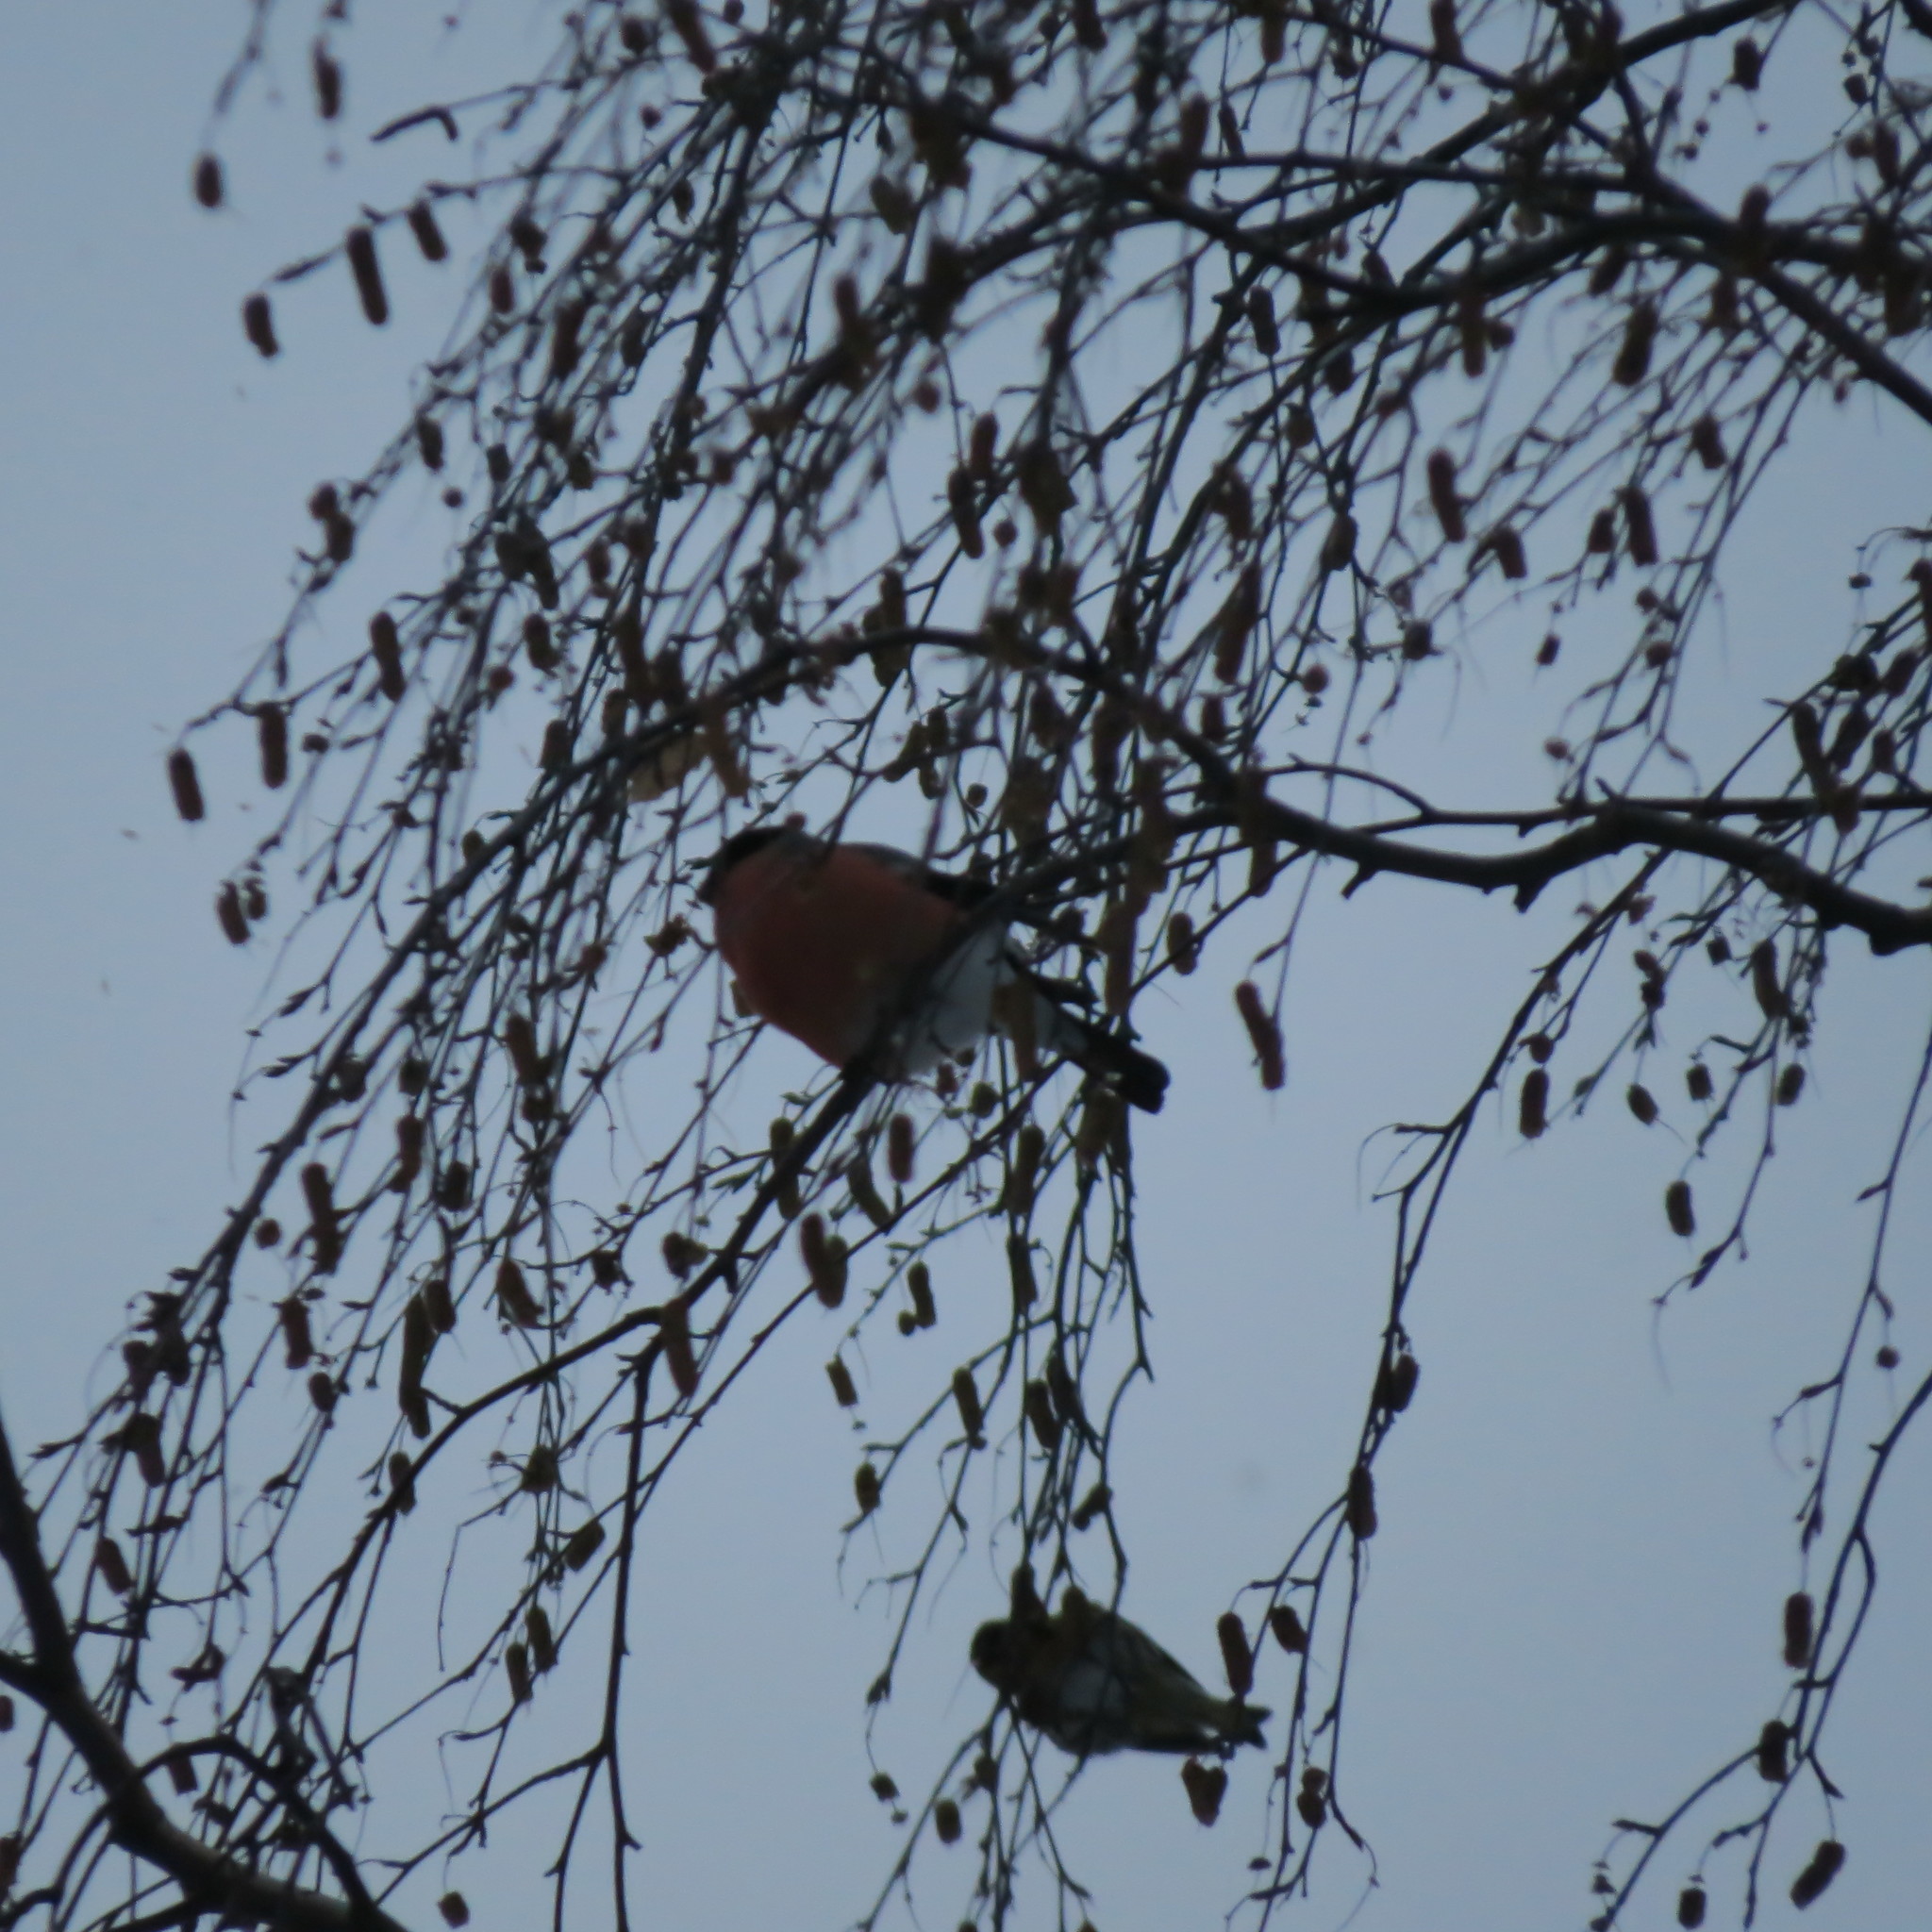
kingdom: Animalia
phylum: Chordata
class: Aves
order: Passeriformes
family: Fringillidae
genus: Pyrrhula
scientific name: Pyrrhula pyrrhula
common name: Eurasian bullfinch
